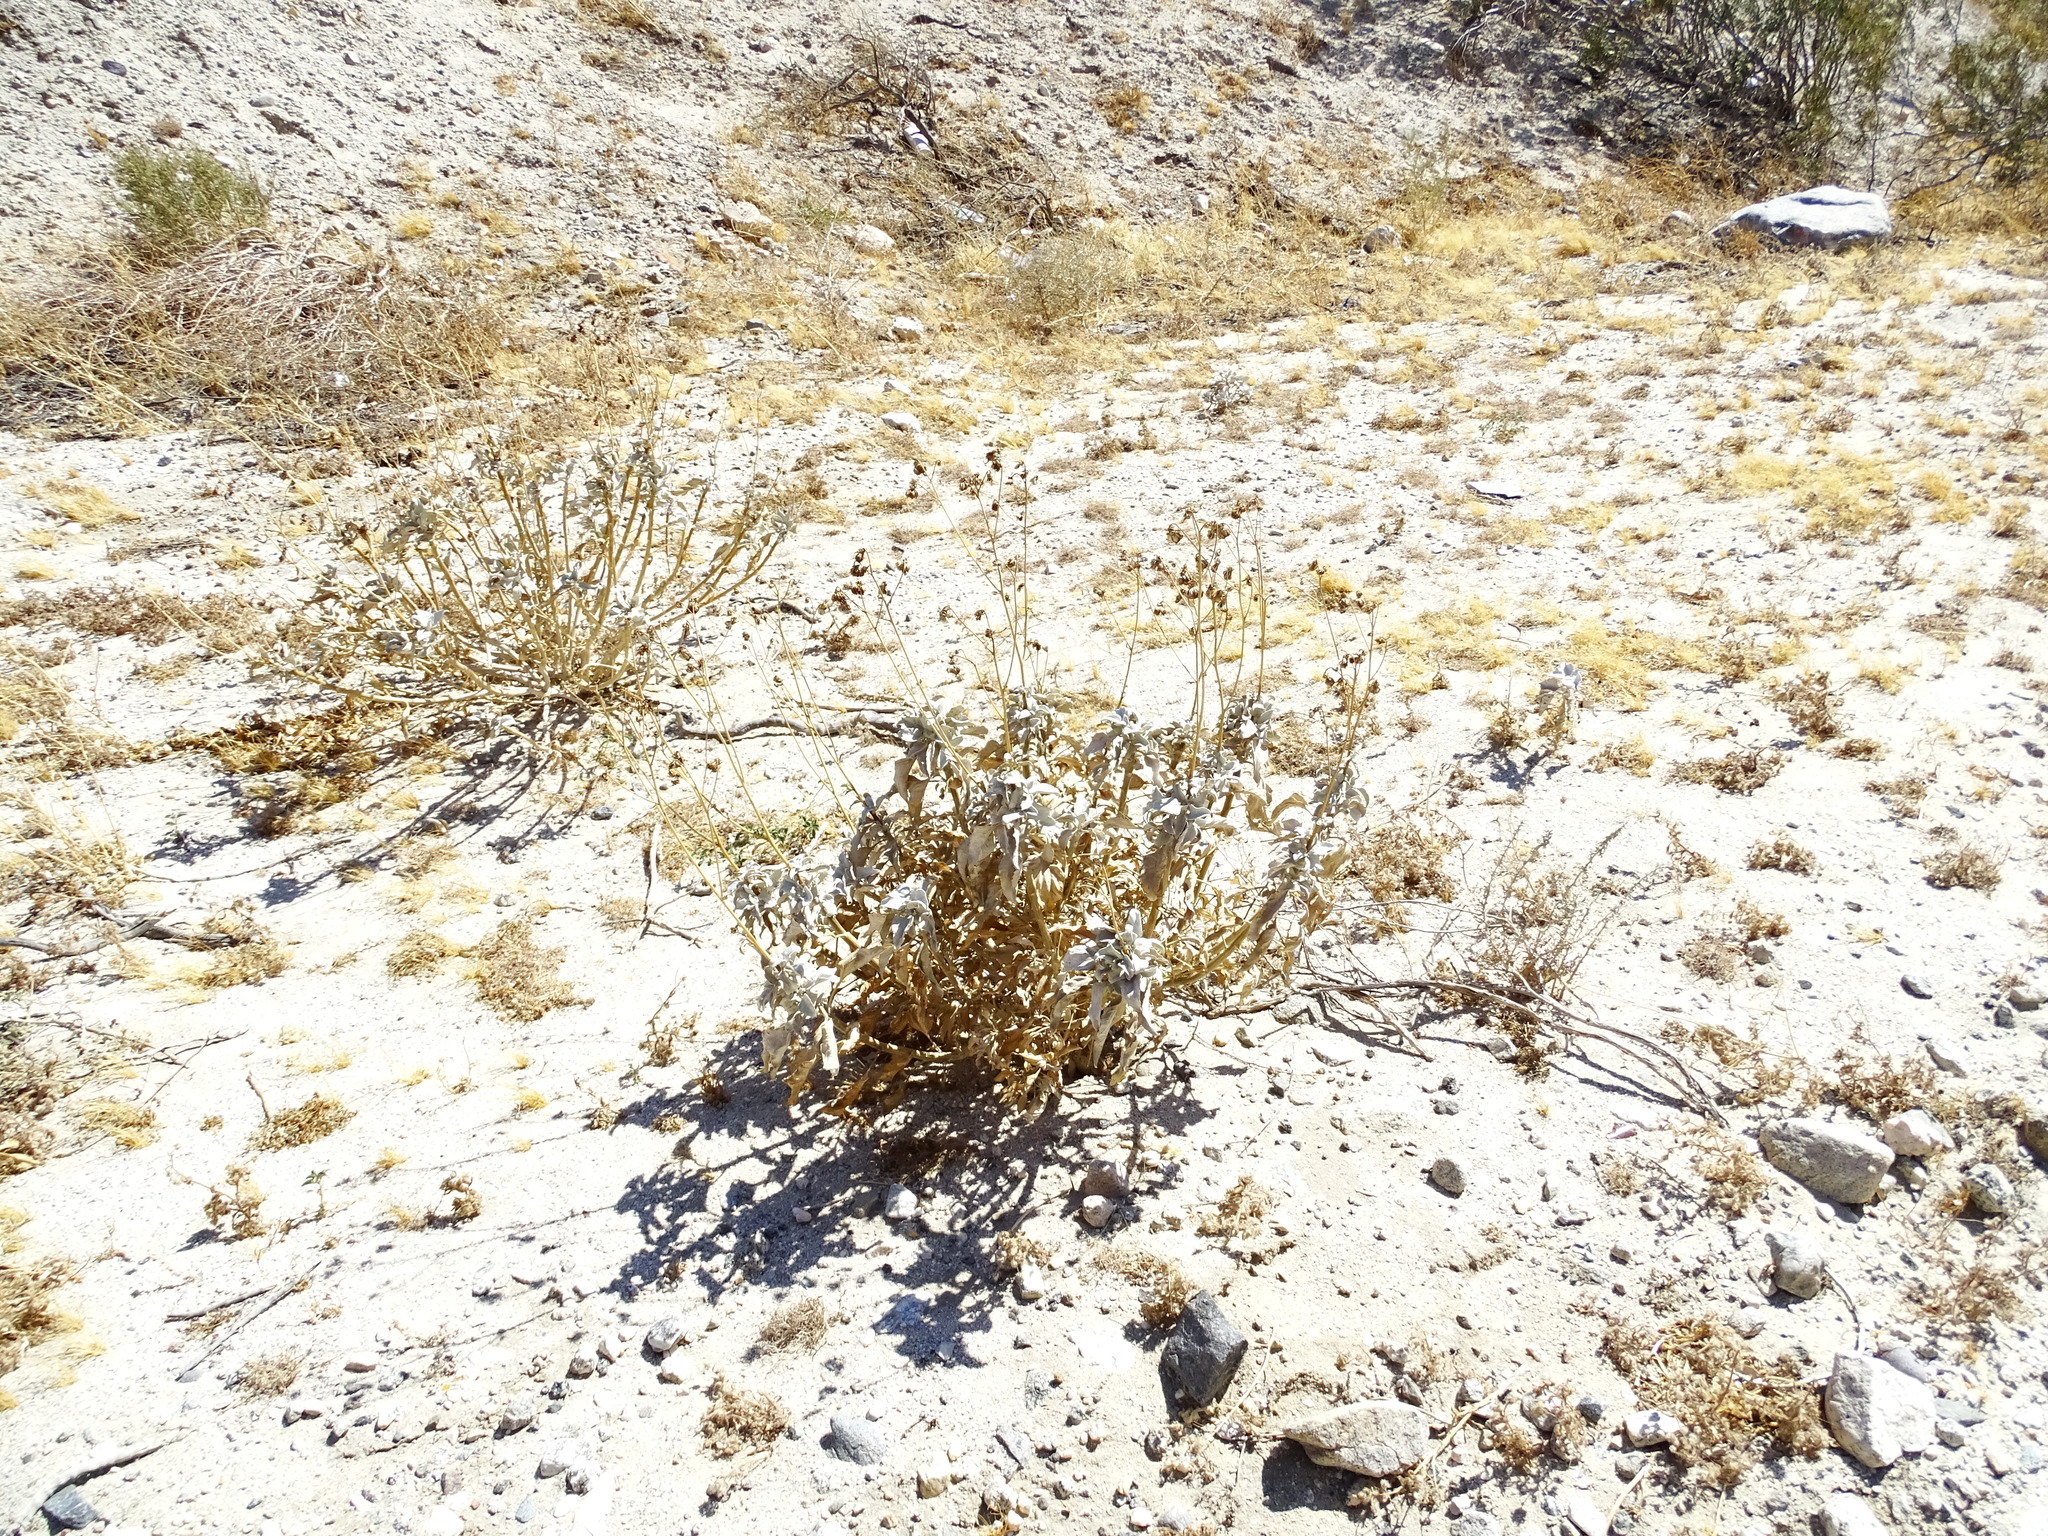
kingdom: Plantae
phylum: Tracheophyta
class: Magnoliopsida
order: Asterales
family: Asteraceae
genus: Encelia
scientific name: Encelia farinosa
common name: Brittlebush
